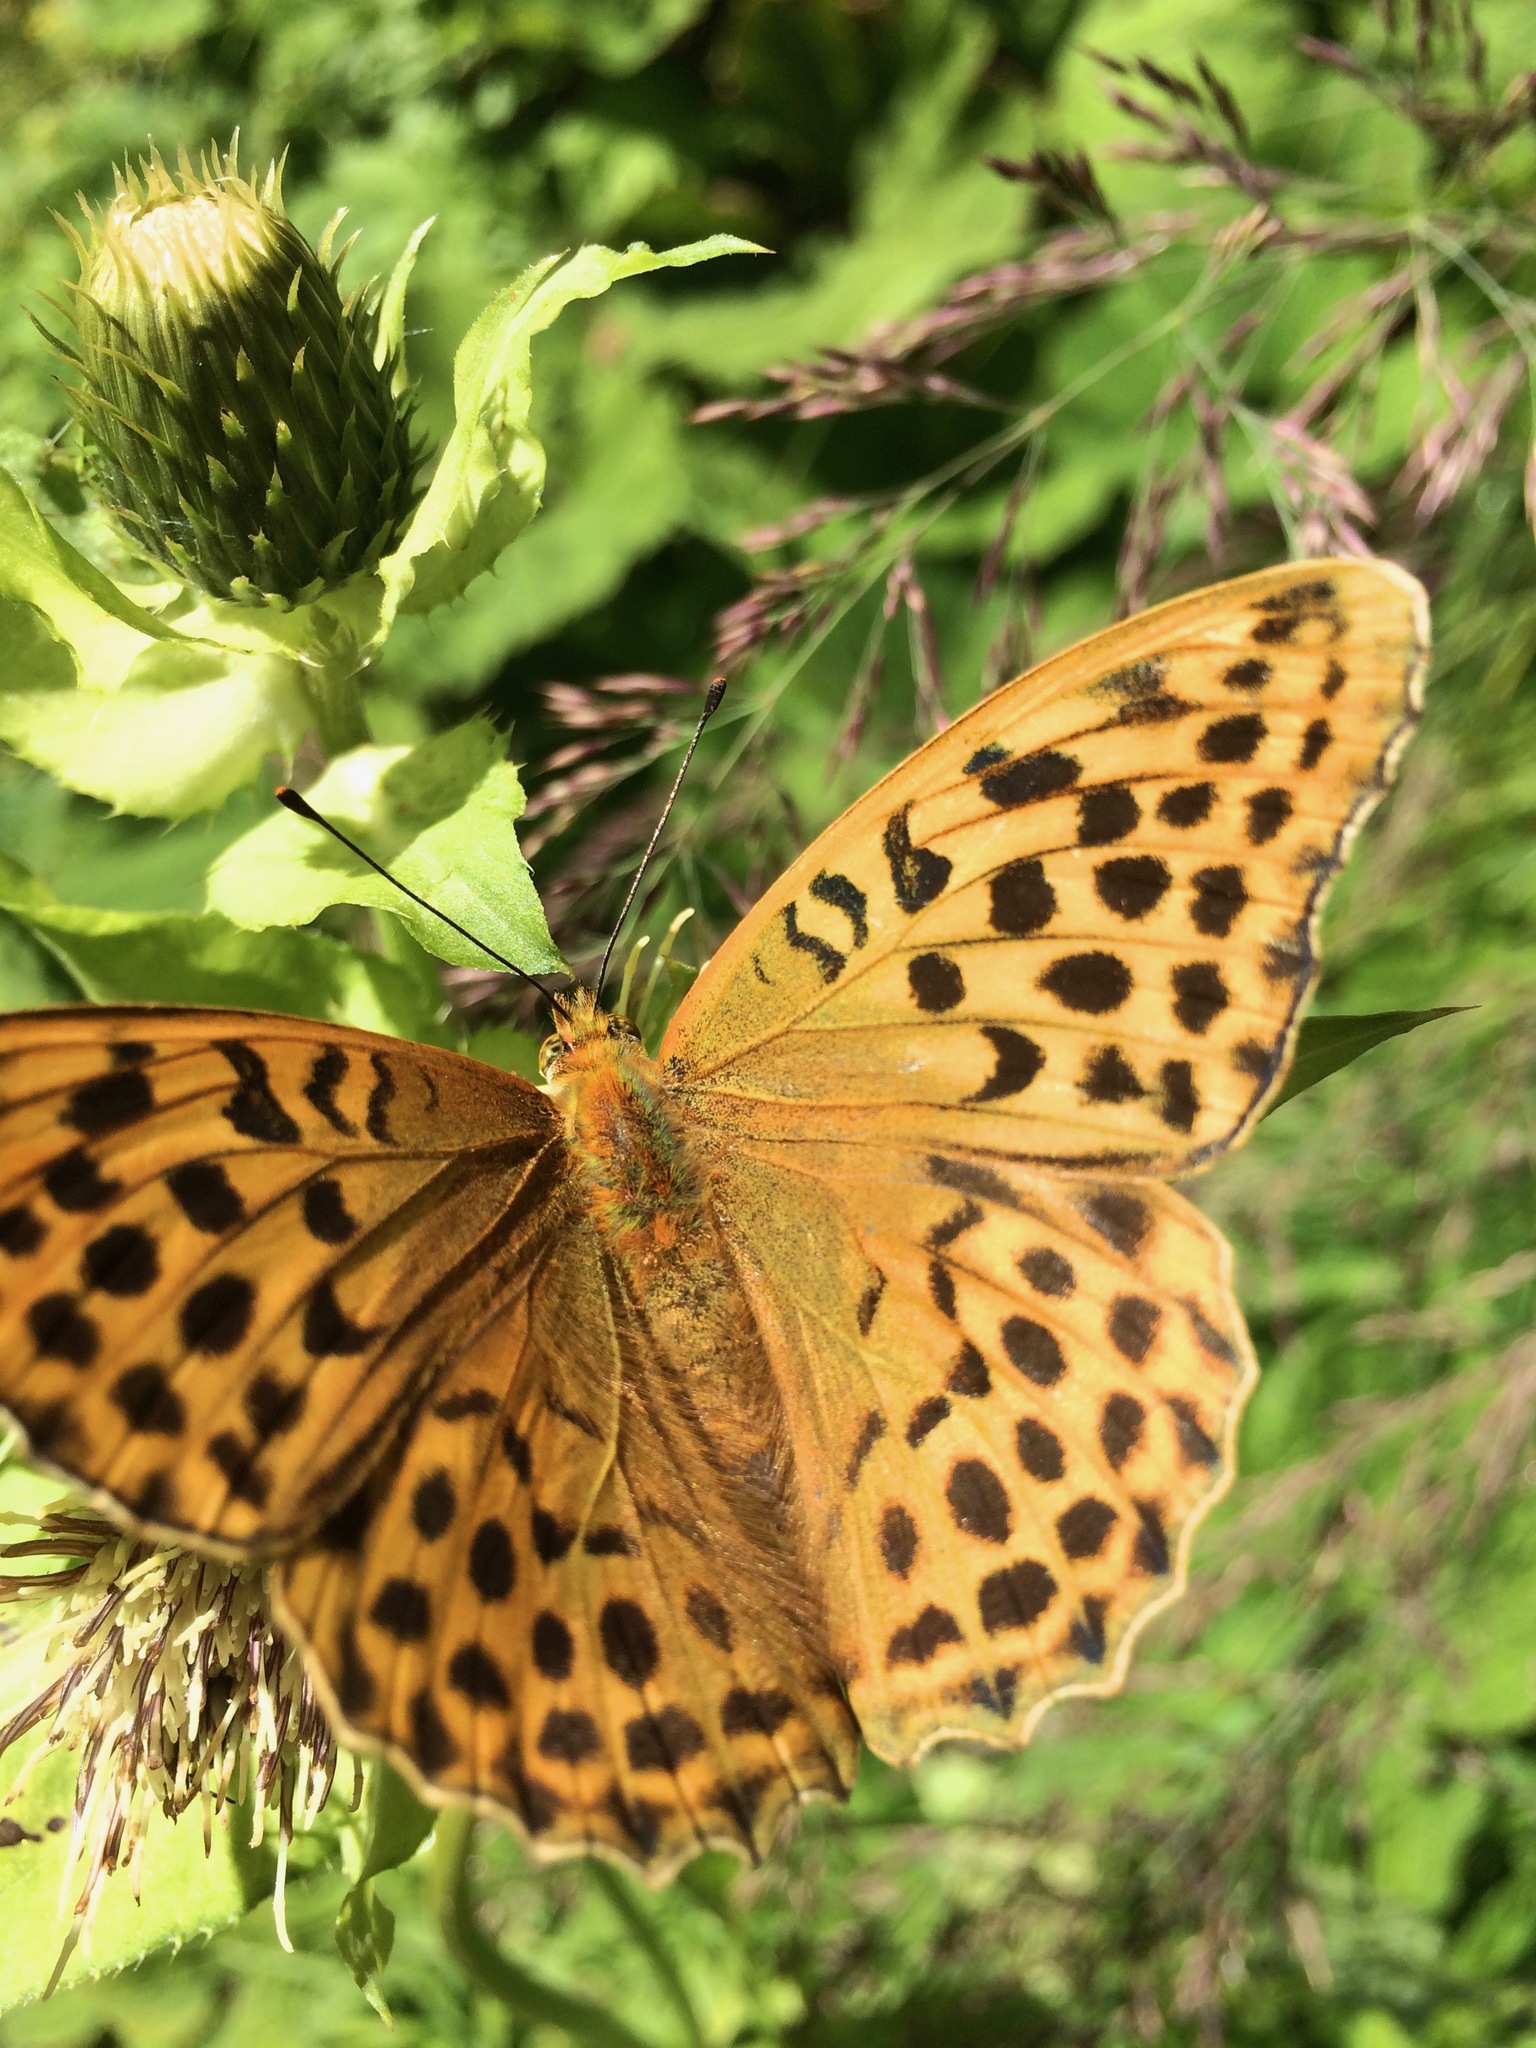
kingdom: Animalia
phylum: Arthropoda
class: Insecta
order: Lepidoptera
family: Nymphalidae
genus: Argynnis
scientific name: Argynnis paphia
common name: Silver-washed fritillary
